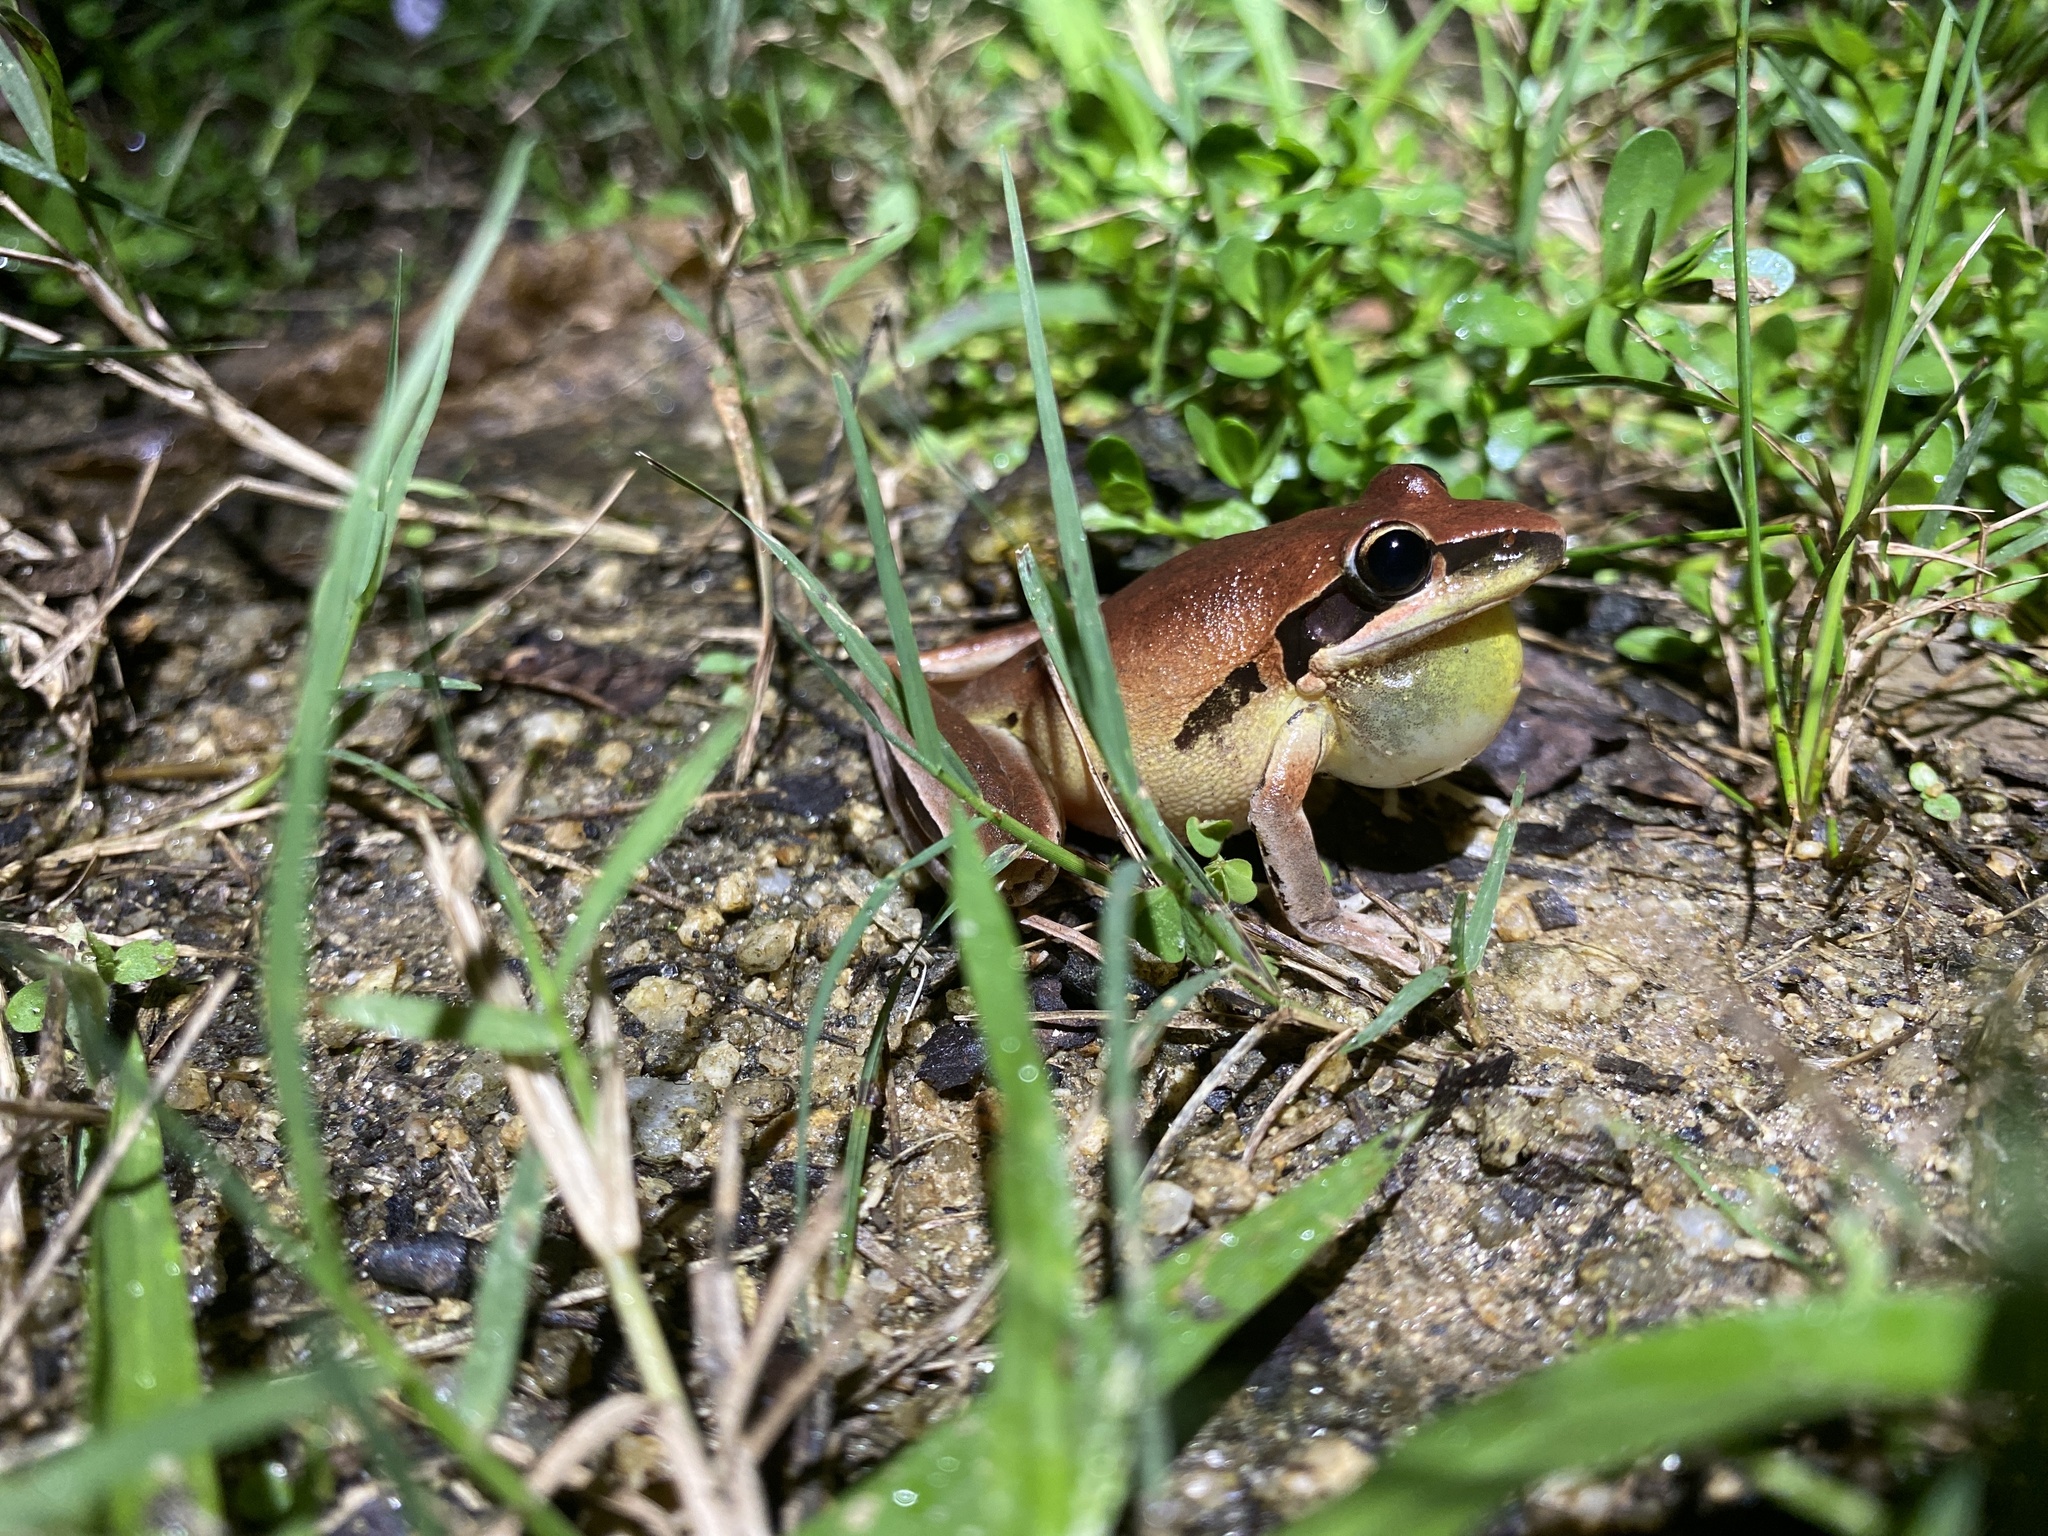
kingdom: Animalia
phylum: Chordata
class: Amphibia
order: Anura
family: Pelodryadidae
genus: Litoria
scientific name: Litoria nigrofrenata
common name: Bridle frog
